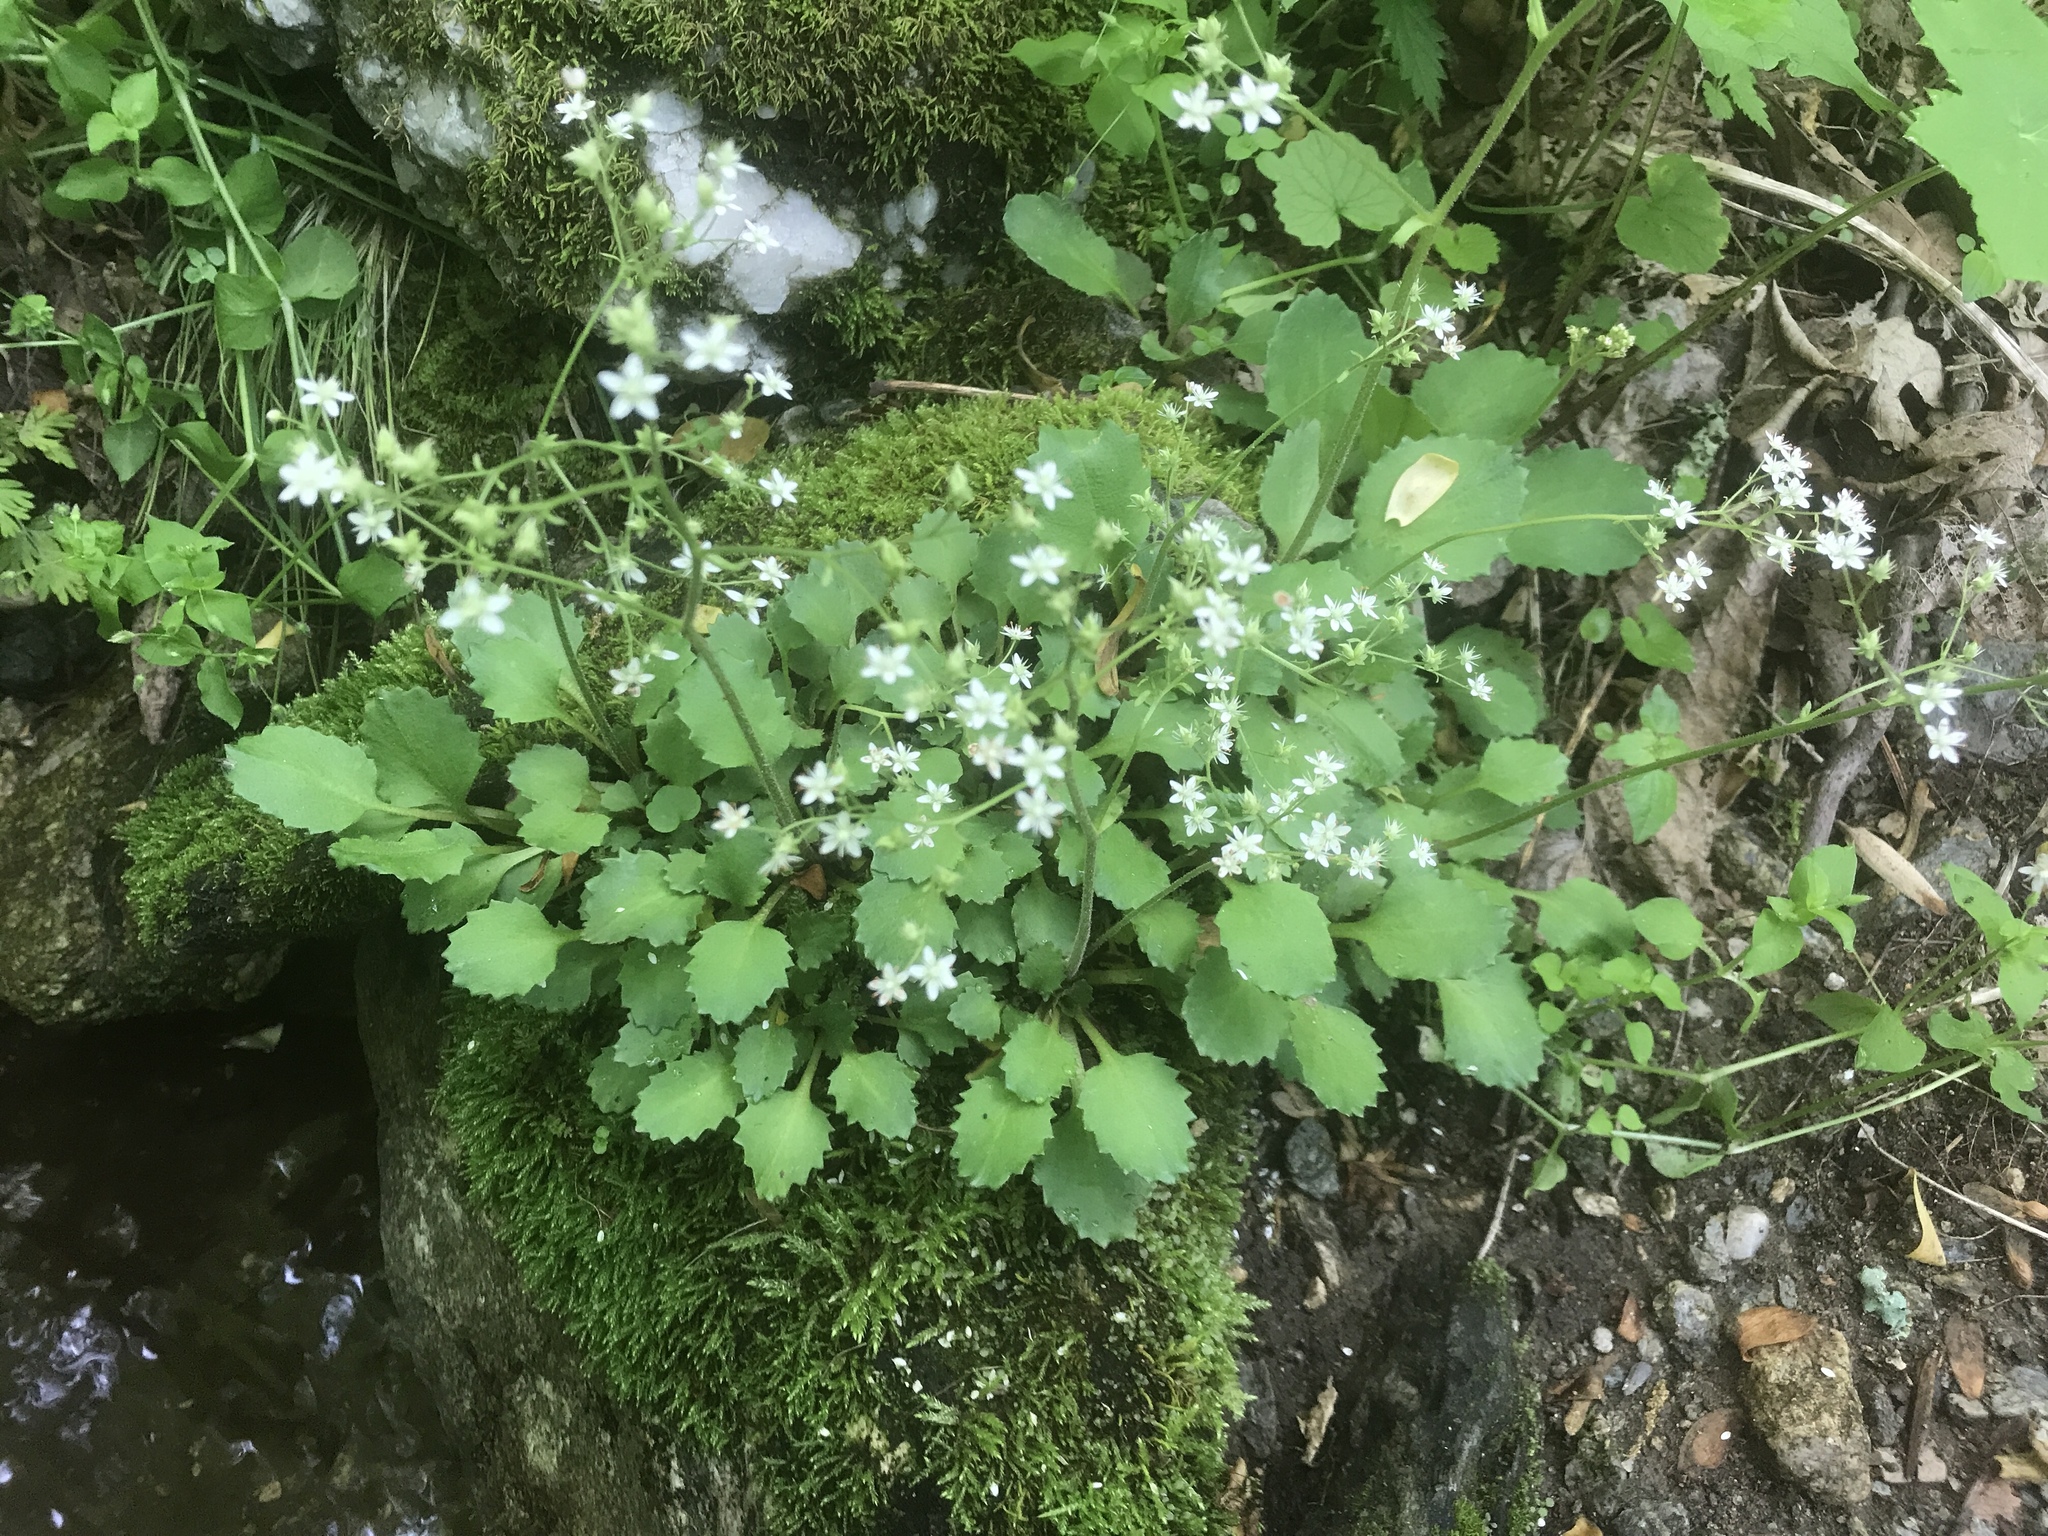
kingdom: Plantae
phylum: Tracheophyta
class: Magnoliopsida
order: Saxifragales
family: Saxifragaceae
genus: Micranthes
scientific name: Micranthes careyana
